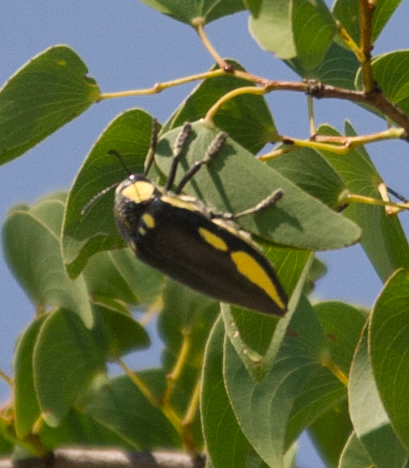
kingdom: Animalia
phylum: Arthropoda
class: Insecta
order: Coleoptera
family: Buprestidae
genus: Sternocera
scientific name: Sternocera orissa
